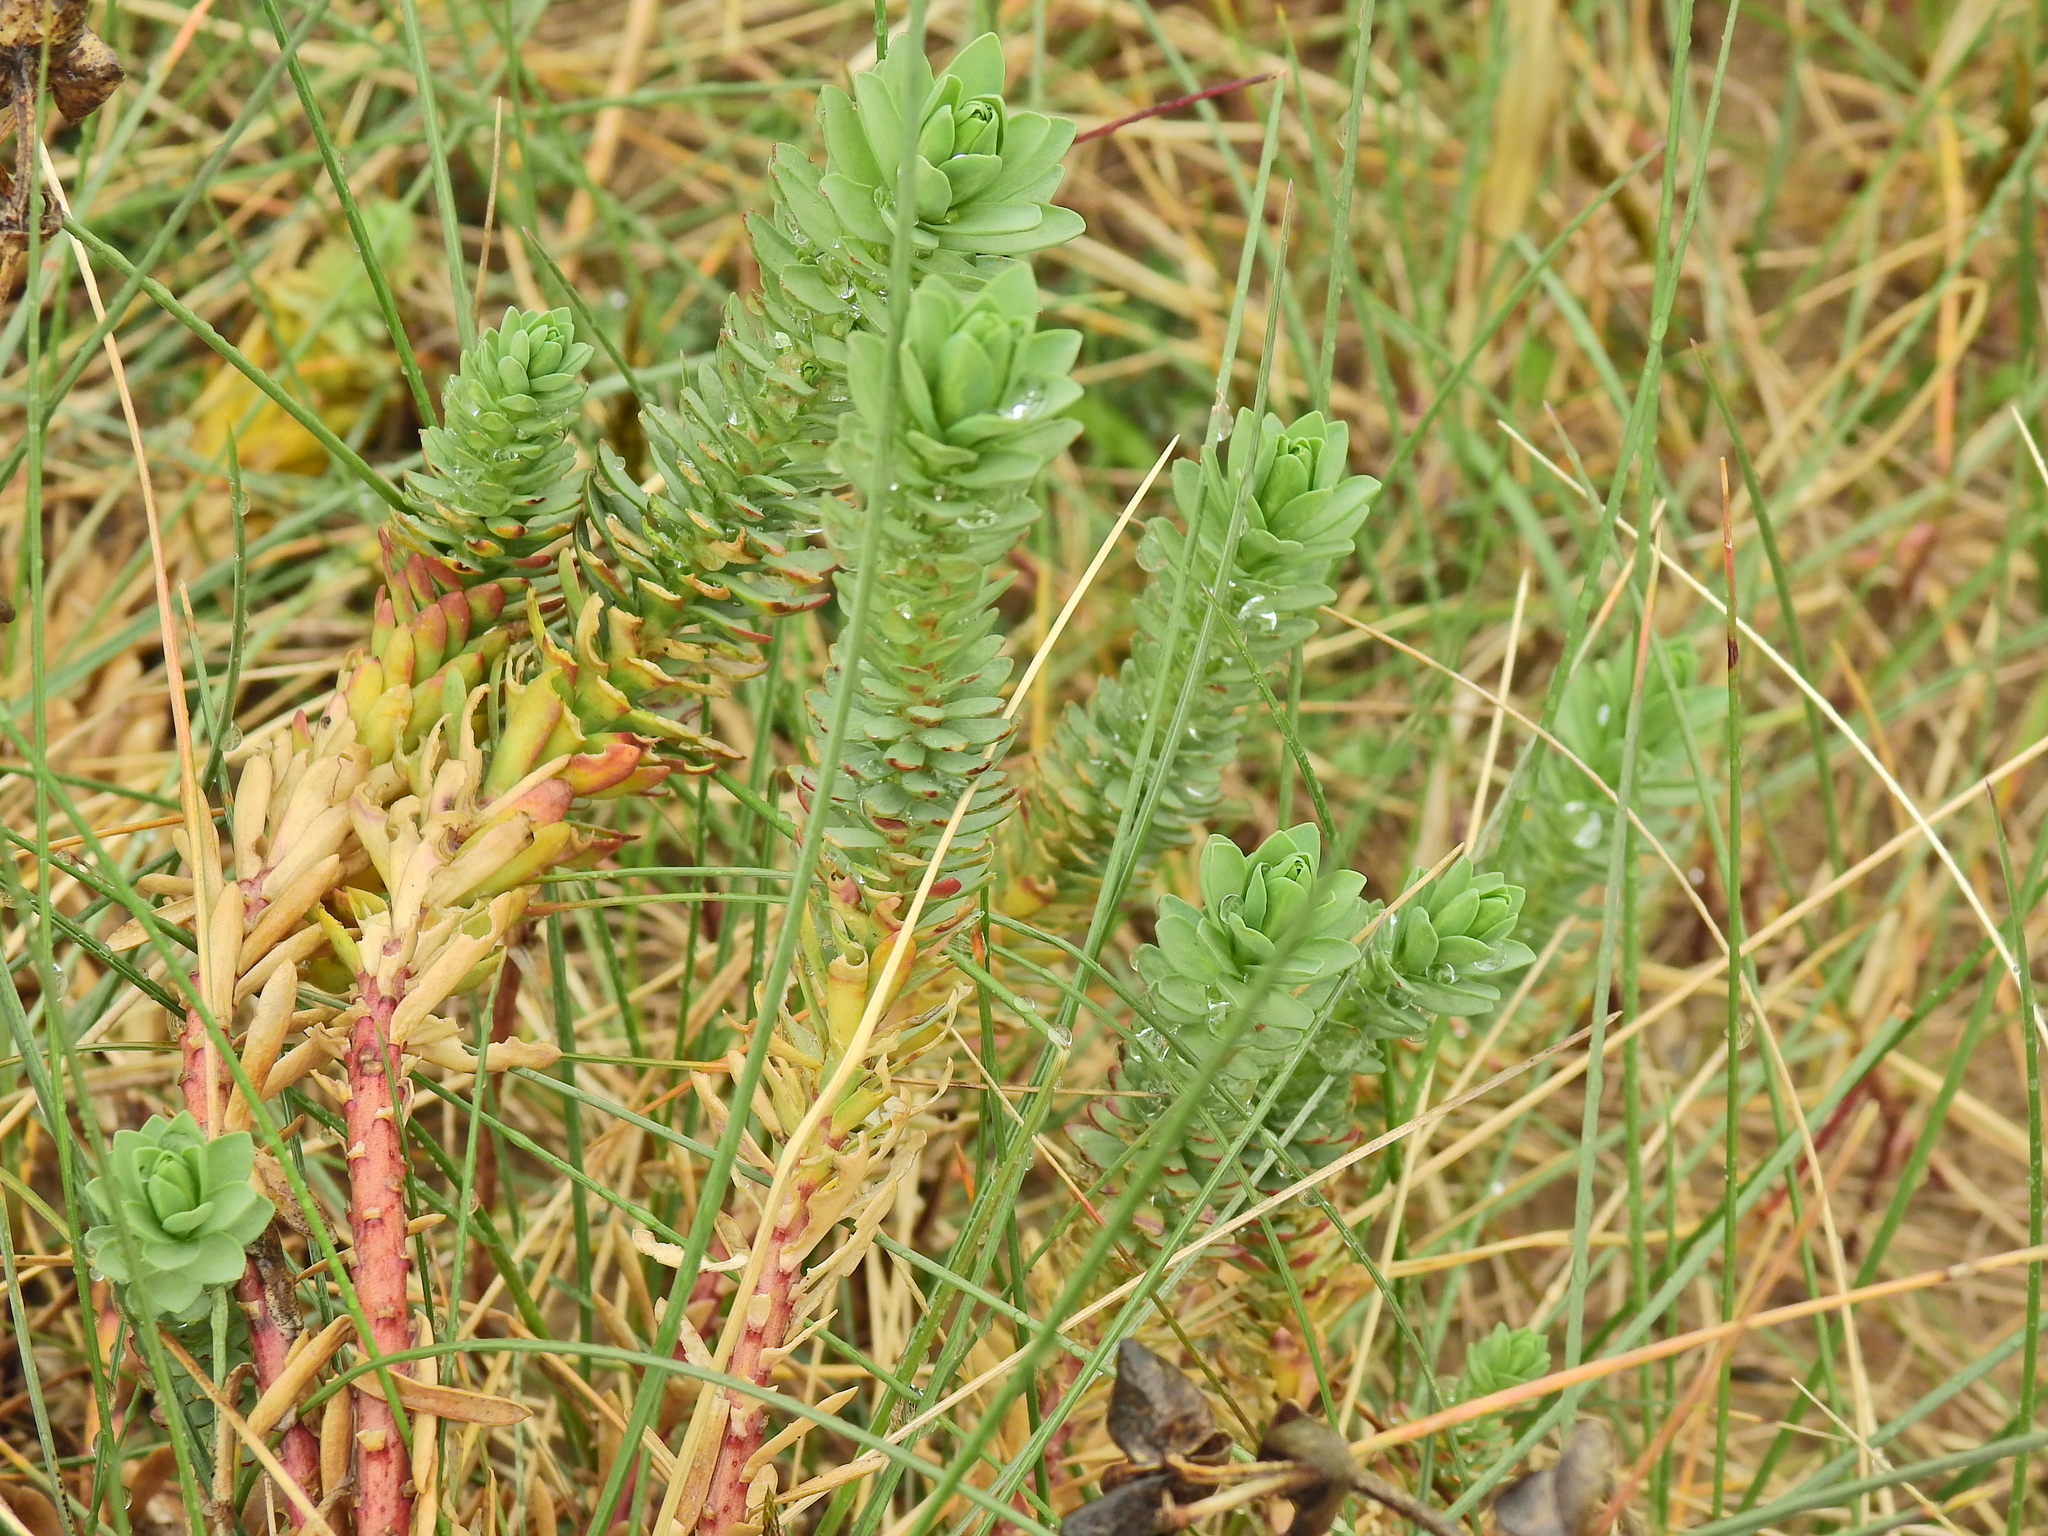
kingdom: Plantae
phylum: Tracheophyta
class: Magnoliopsida
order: Malpighiales
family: Euphorbiaceae
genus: Euphorbia
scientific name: Euphorbia paralias
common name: Sea spurge
